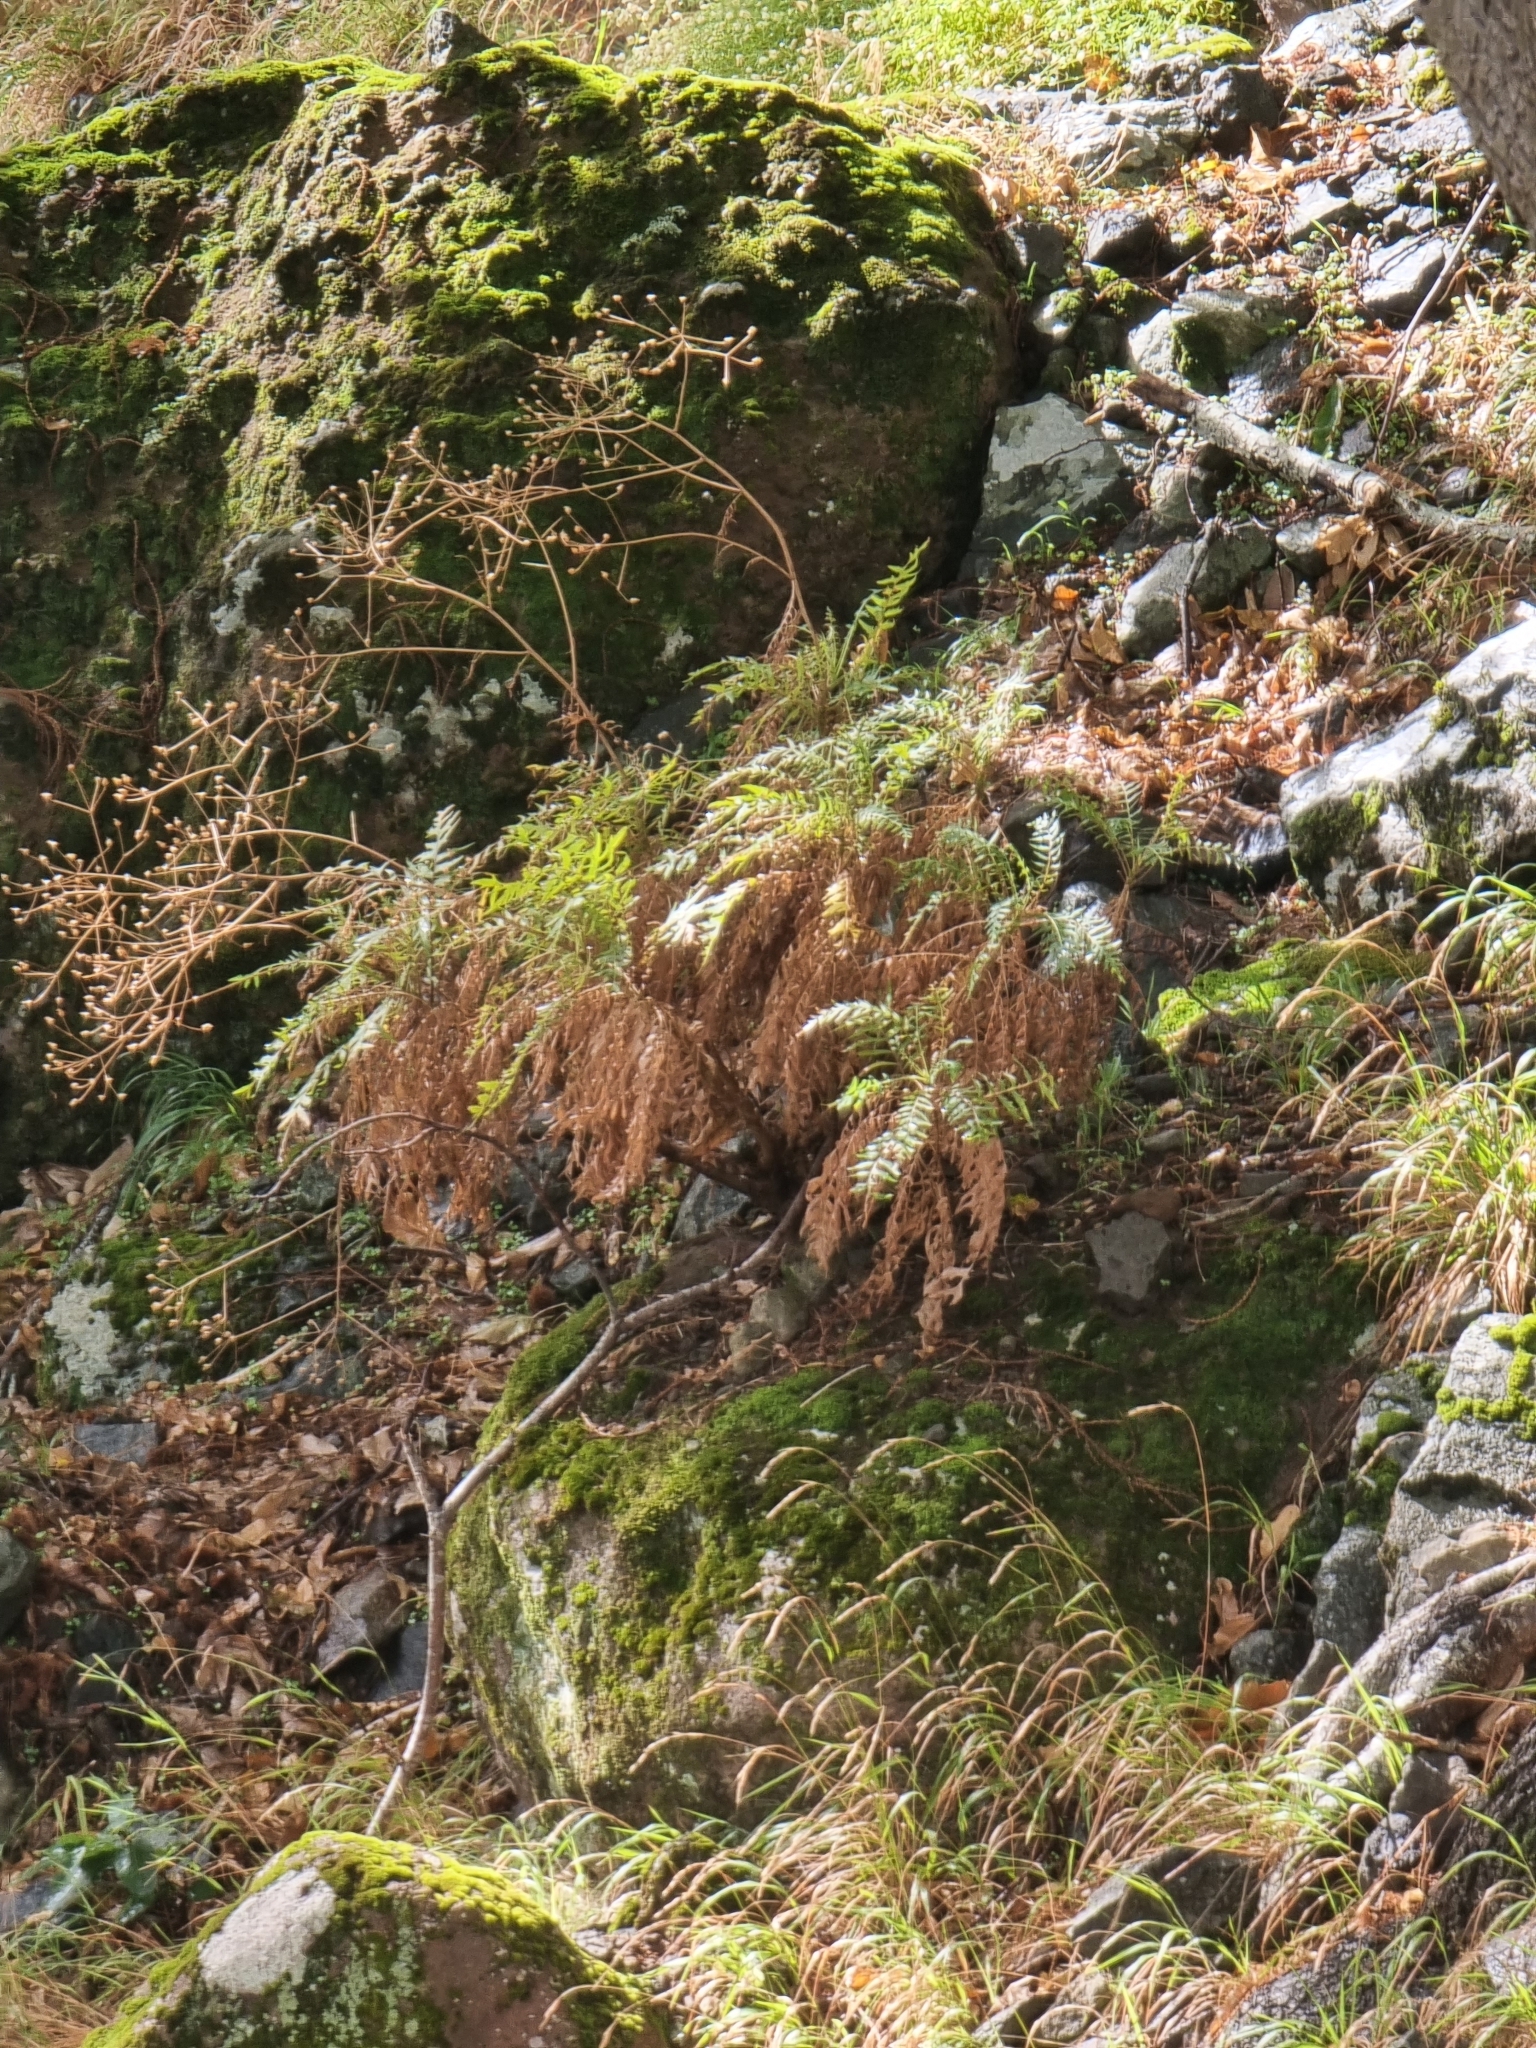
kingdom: Plantae
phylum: Tracheophyta
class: Magnoliopsida
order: Asterales
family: Asteraceae
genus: Sonchus
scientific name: Sonchus pinnatus
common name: Wing-leaved sow-thistle
